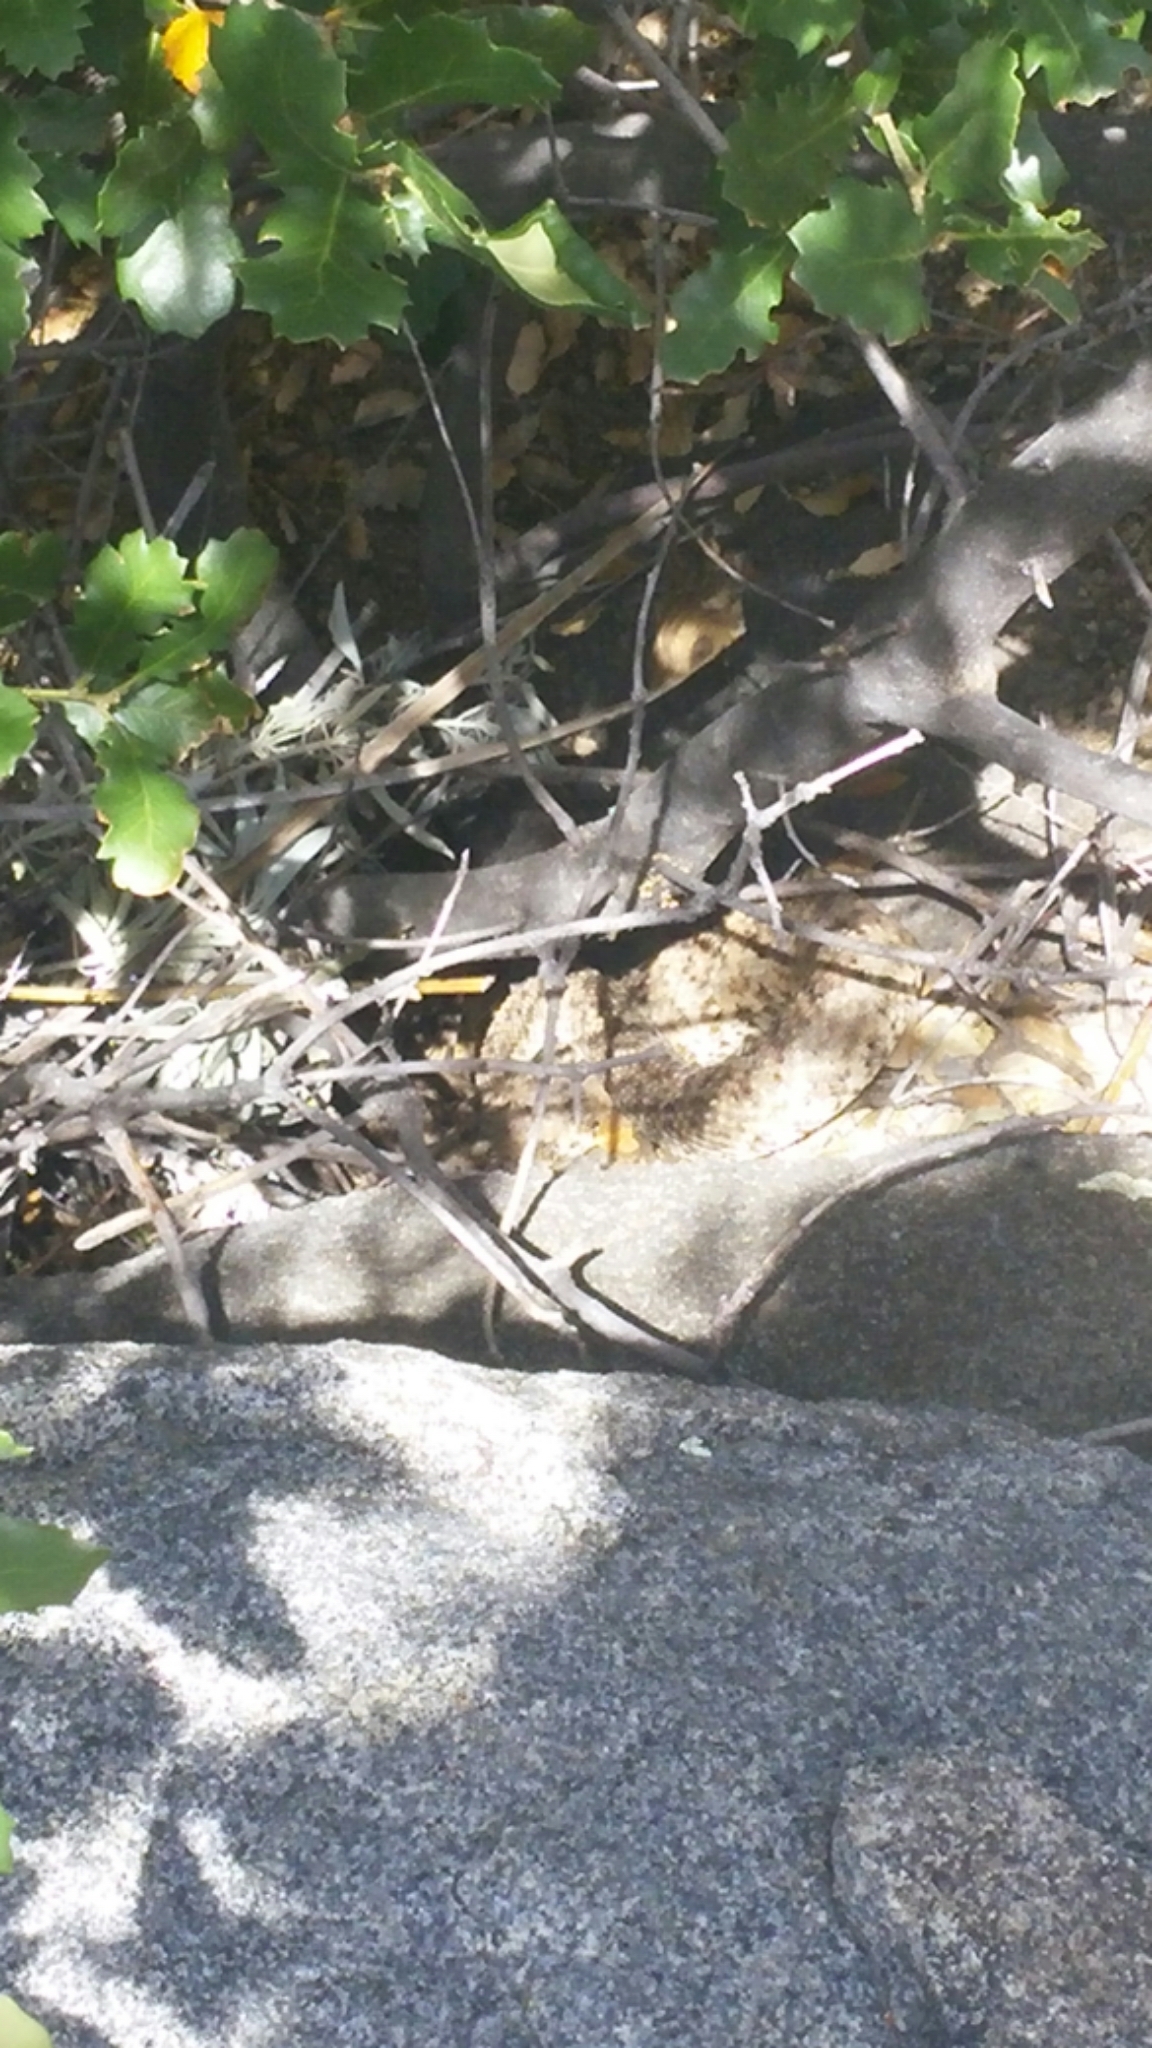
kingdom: Animalia
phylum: Chordata
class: Squamata
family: Viperidae
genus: Crotalus
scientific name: Crotalus pyrrhus
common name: Southwestern speckled rattlesnake
